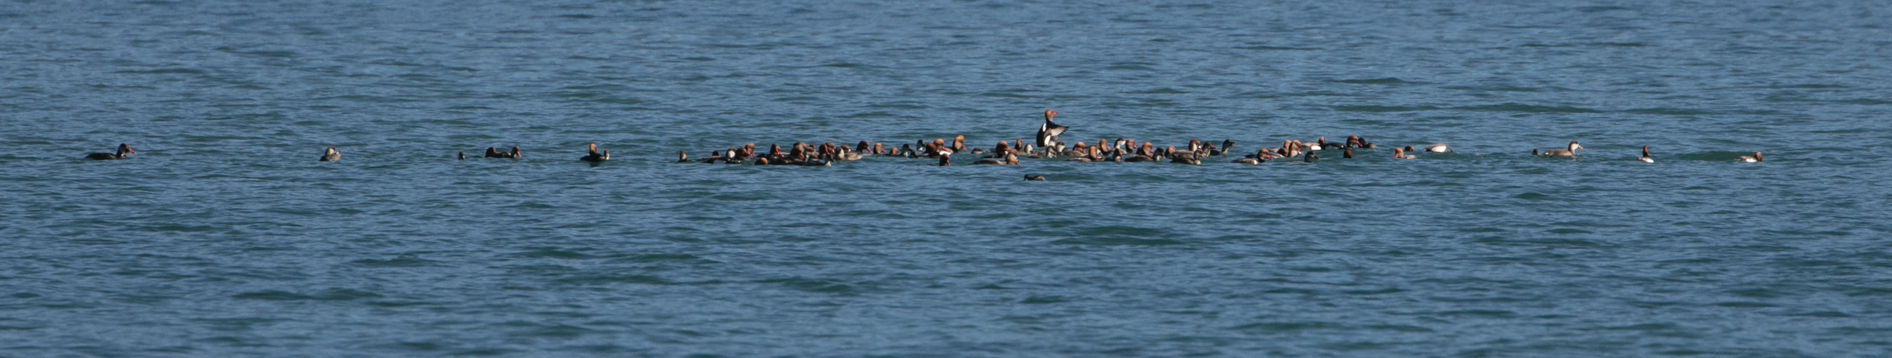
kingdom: Animalia
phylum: Chordata
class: Aves
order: Anseriformes
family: Anatidae
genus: Netta
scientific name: Netta rufina
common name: Red-crested pochard
